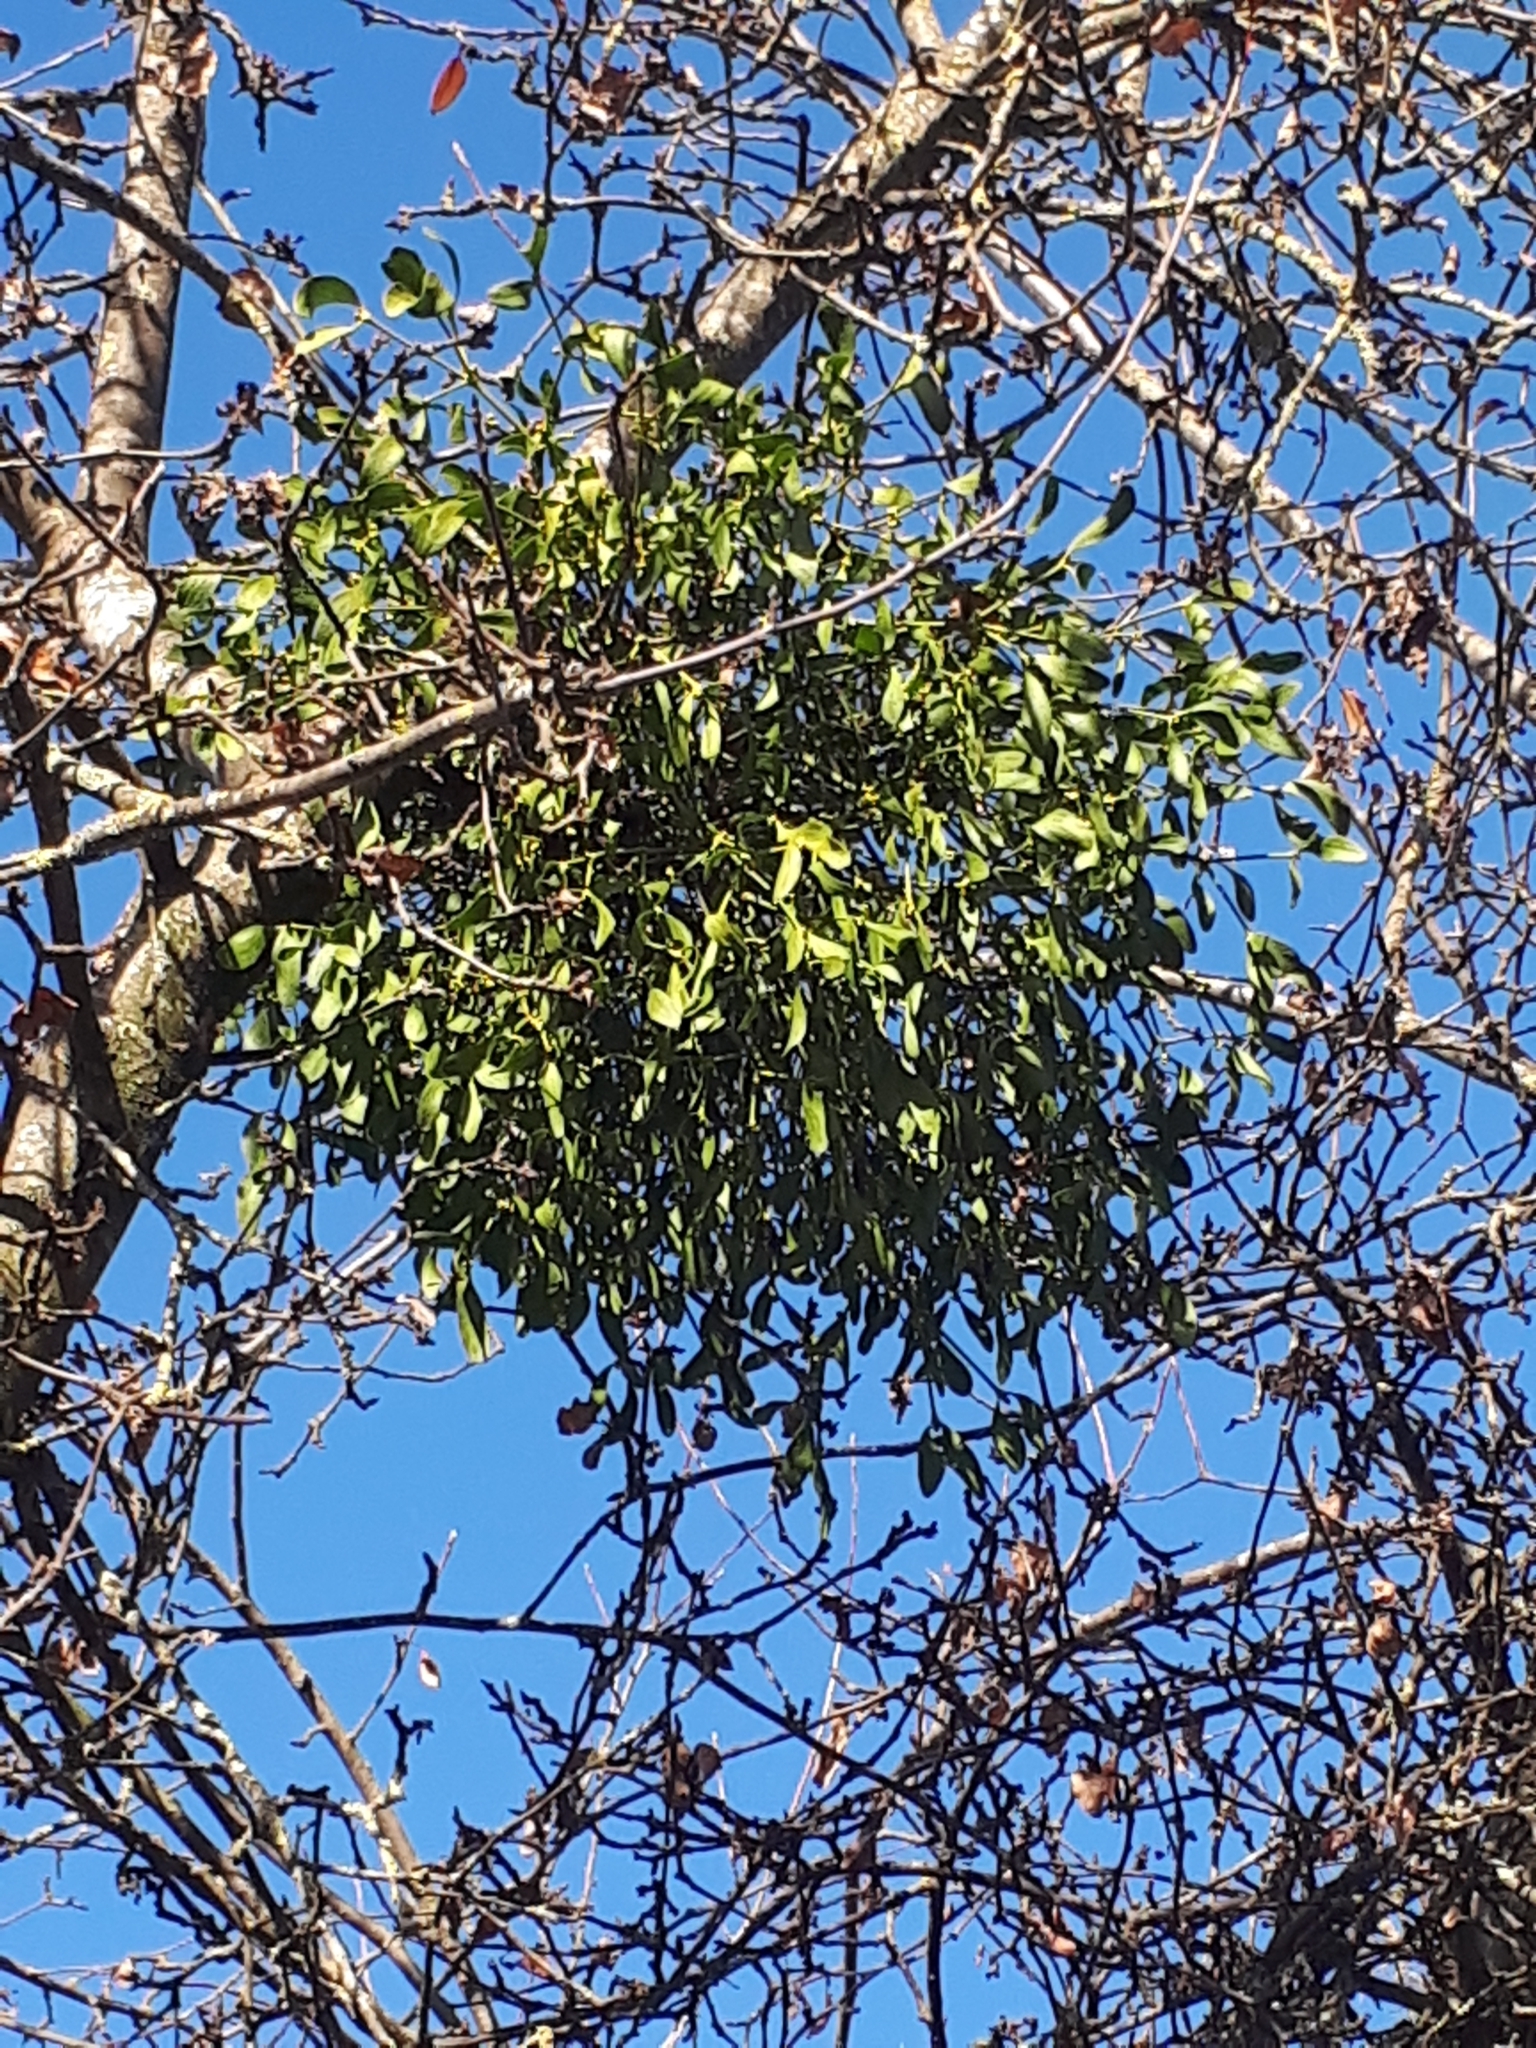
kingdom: Plantae
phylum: Tracheophyta
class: Magnoliopsida
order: Santalales
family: Viscaceae
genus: Viscum
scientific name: Viscum album
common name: Mistletoe
